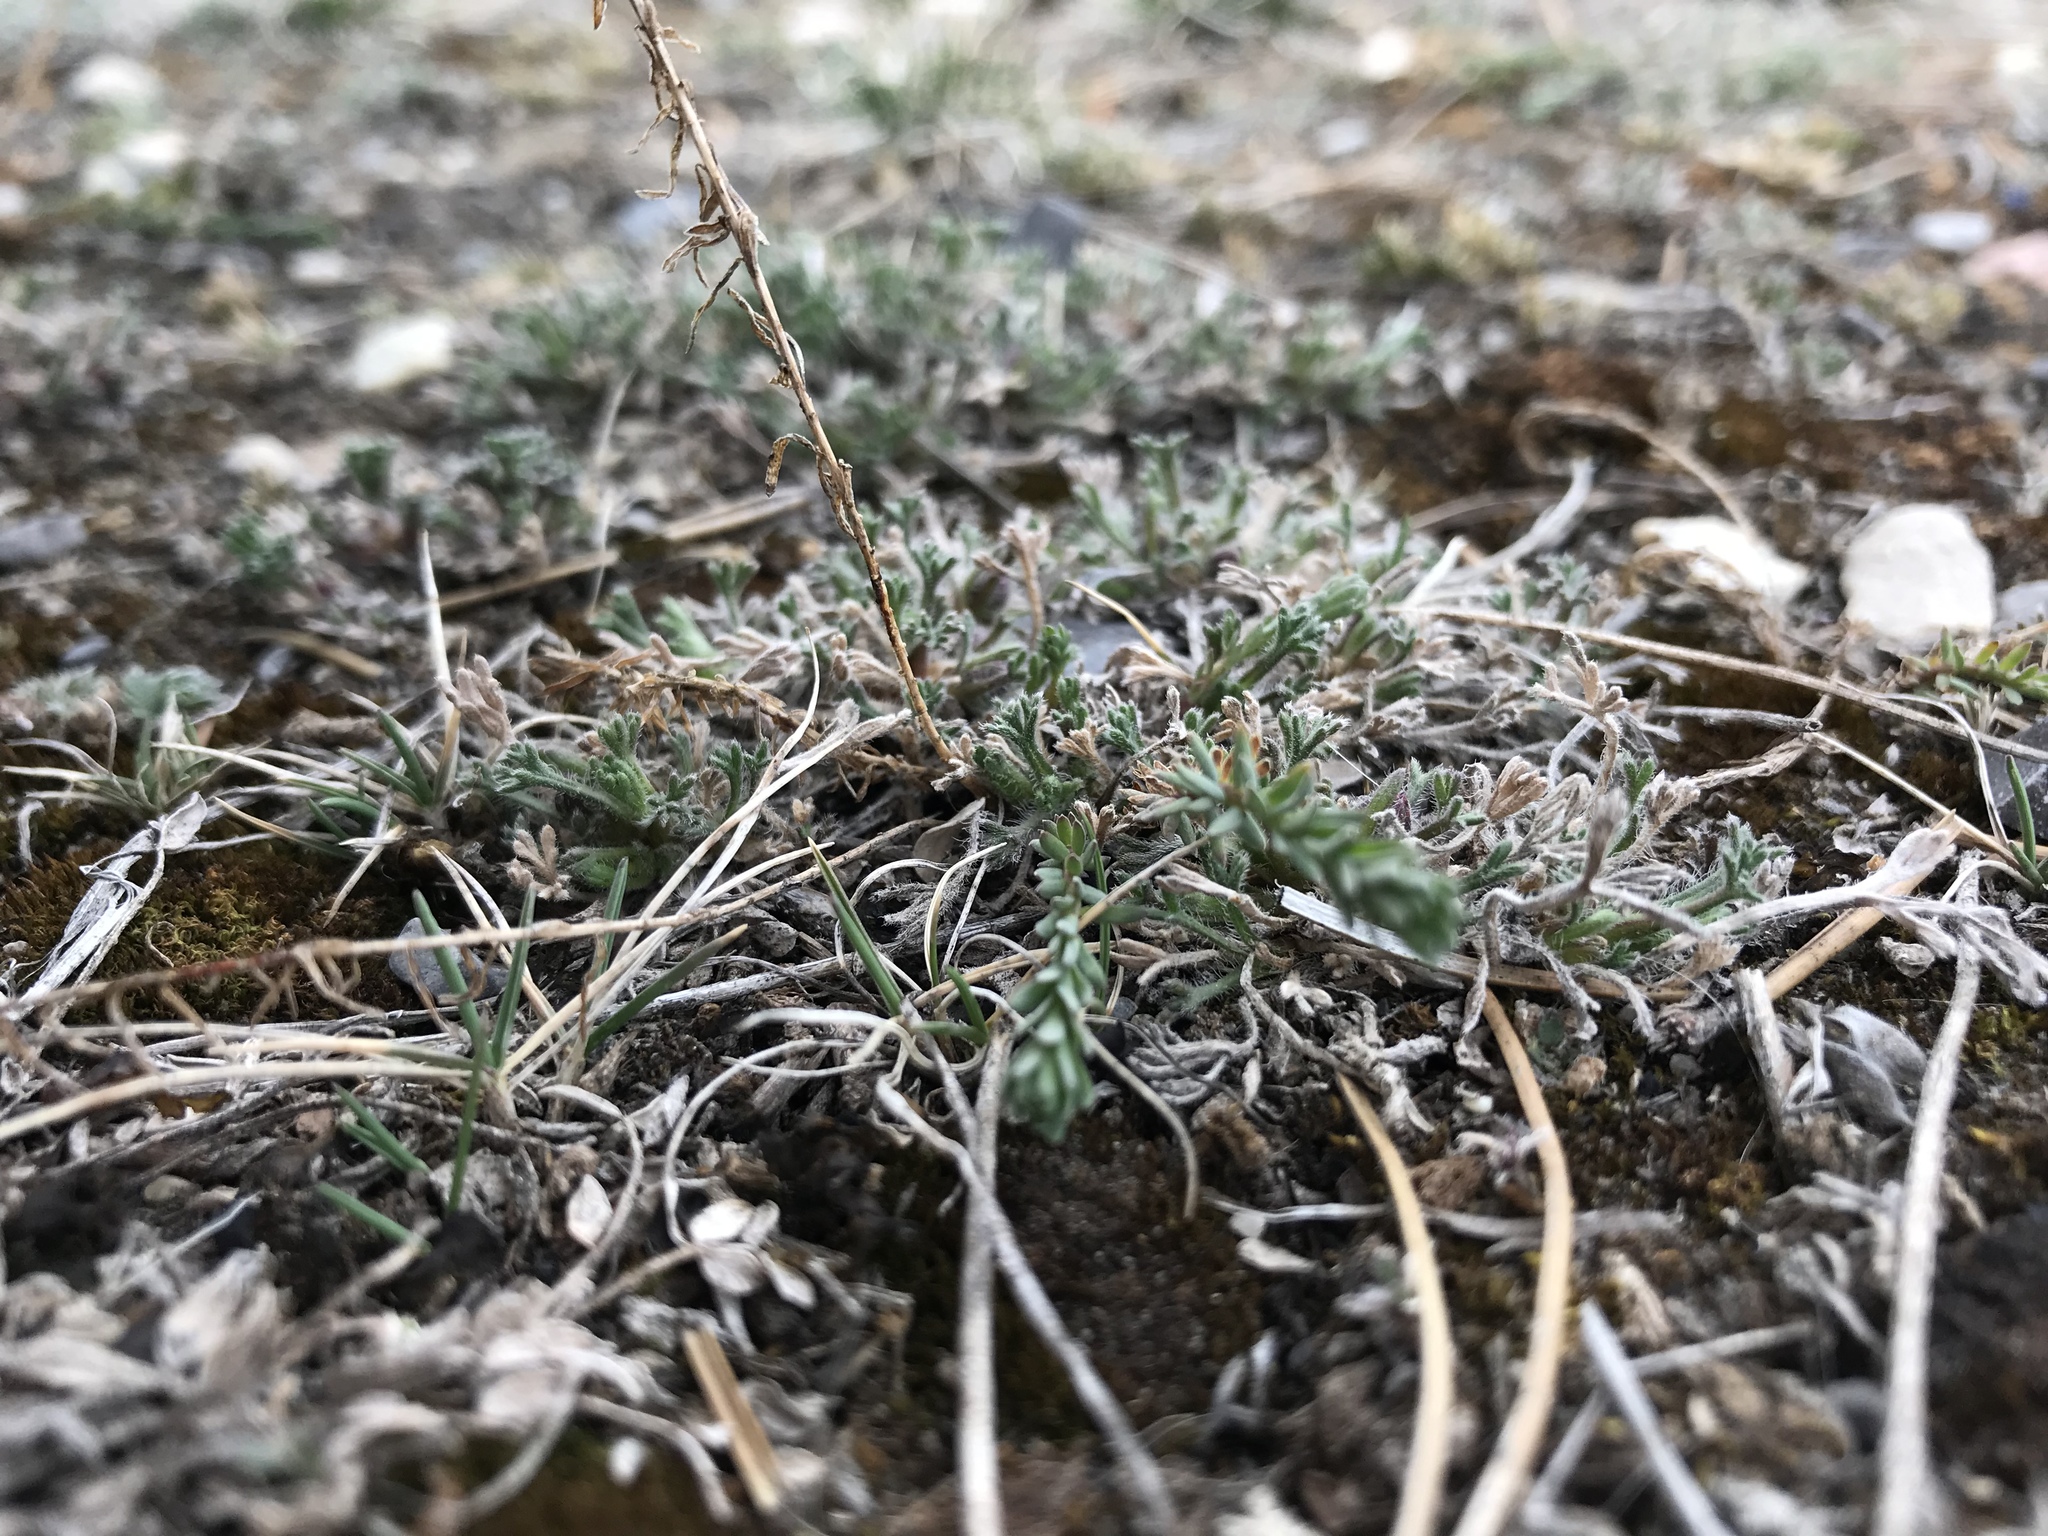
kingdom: Plantae
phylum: Tracheophyta
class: Magnoliopsida
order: Asterales
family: Asteraceae
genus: Erigeron
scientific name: Erigeron compositus
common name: Dwarf mountain fleabane
